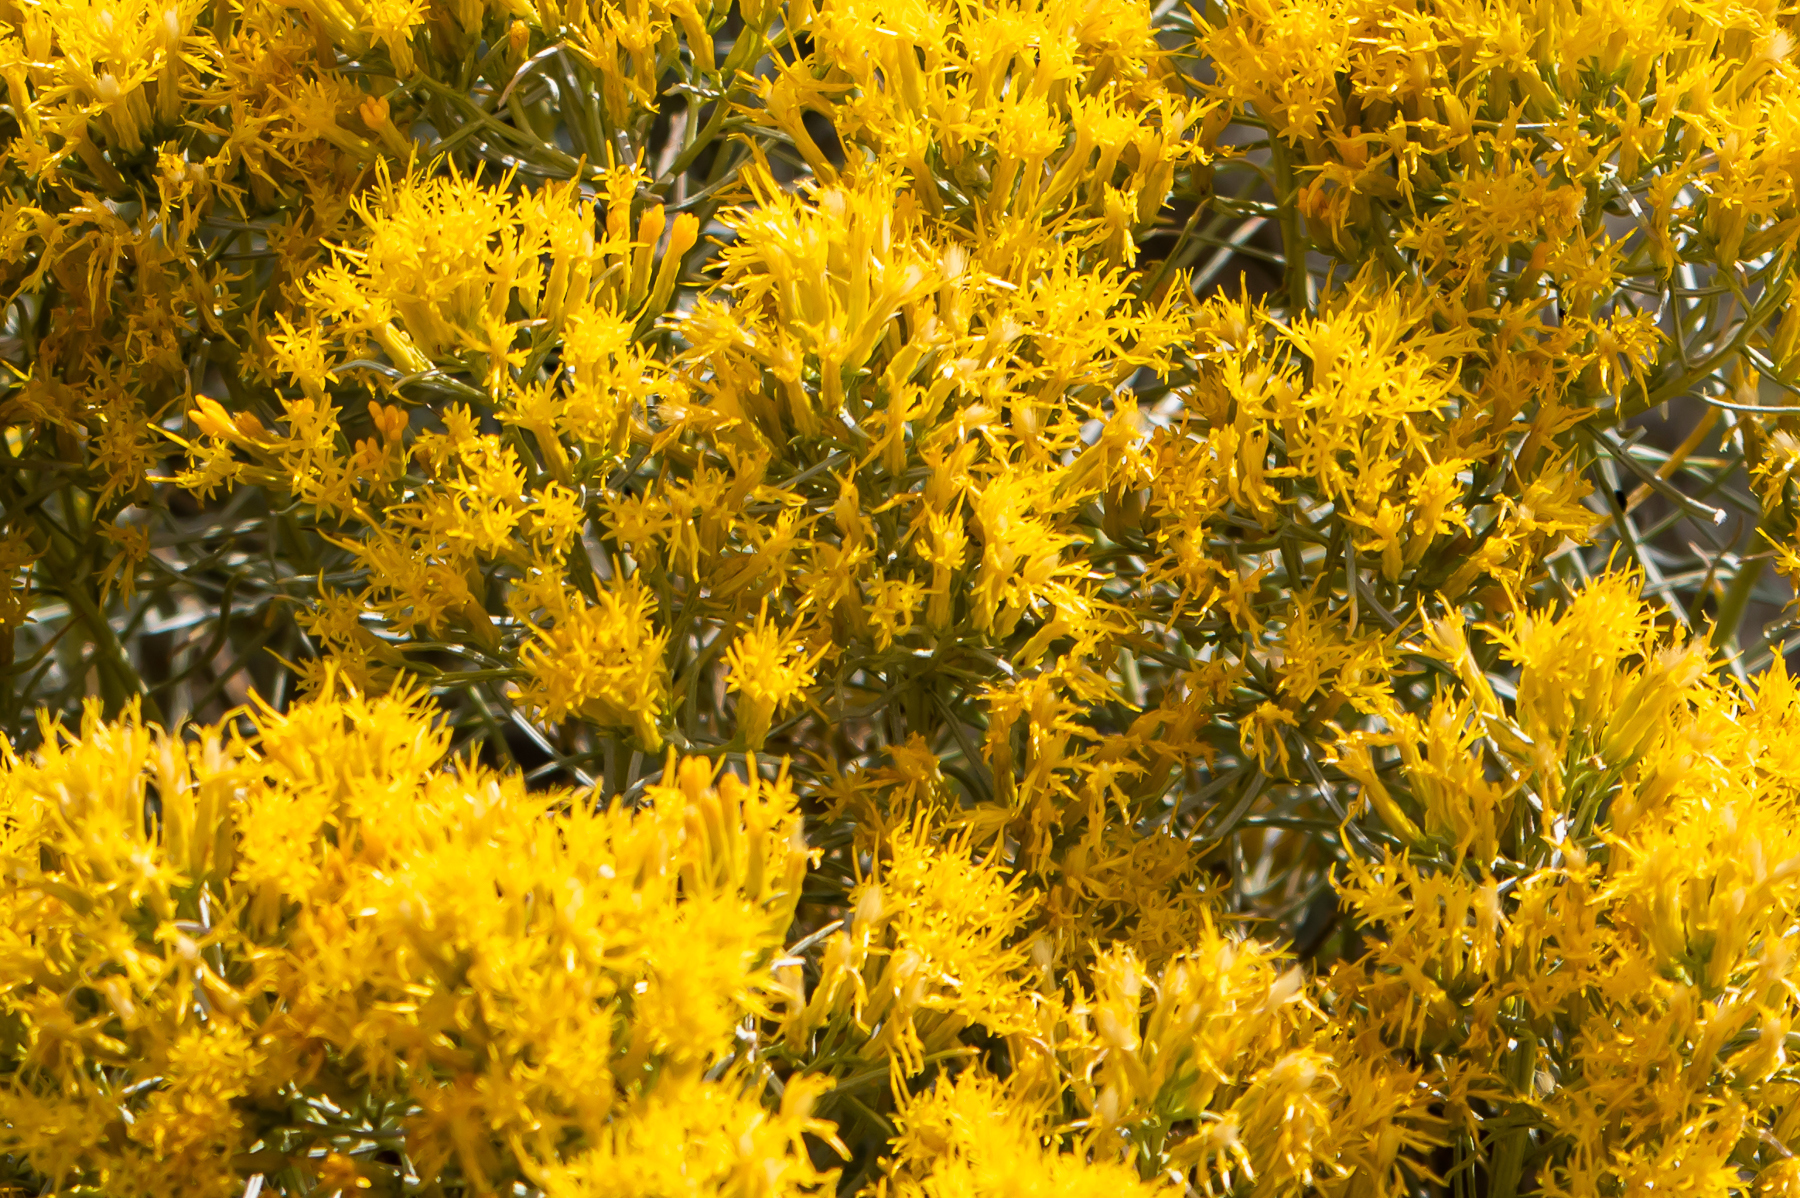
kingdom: Plantae
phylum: Tracheophyta
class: Magnoliopsida
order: Asterales
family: Asteraceae
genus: Ericameria
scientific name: Ericameria nauseosa
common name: Rubber rabbitbrush
